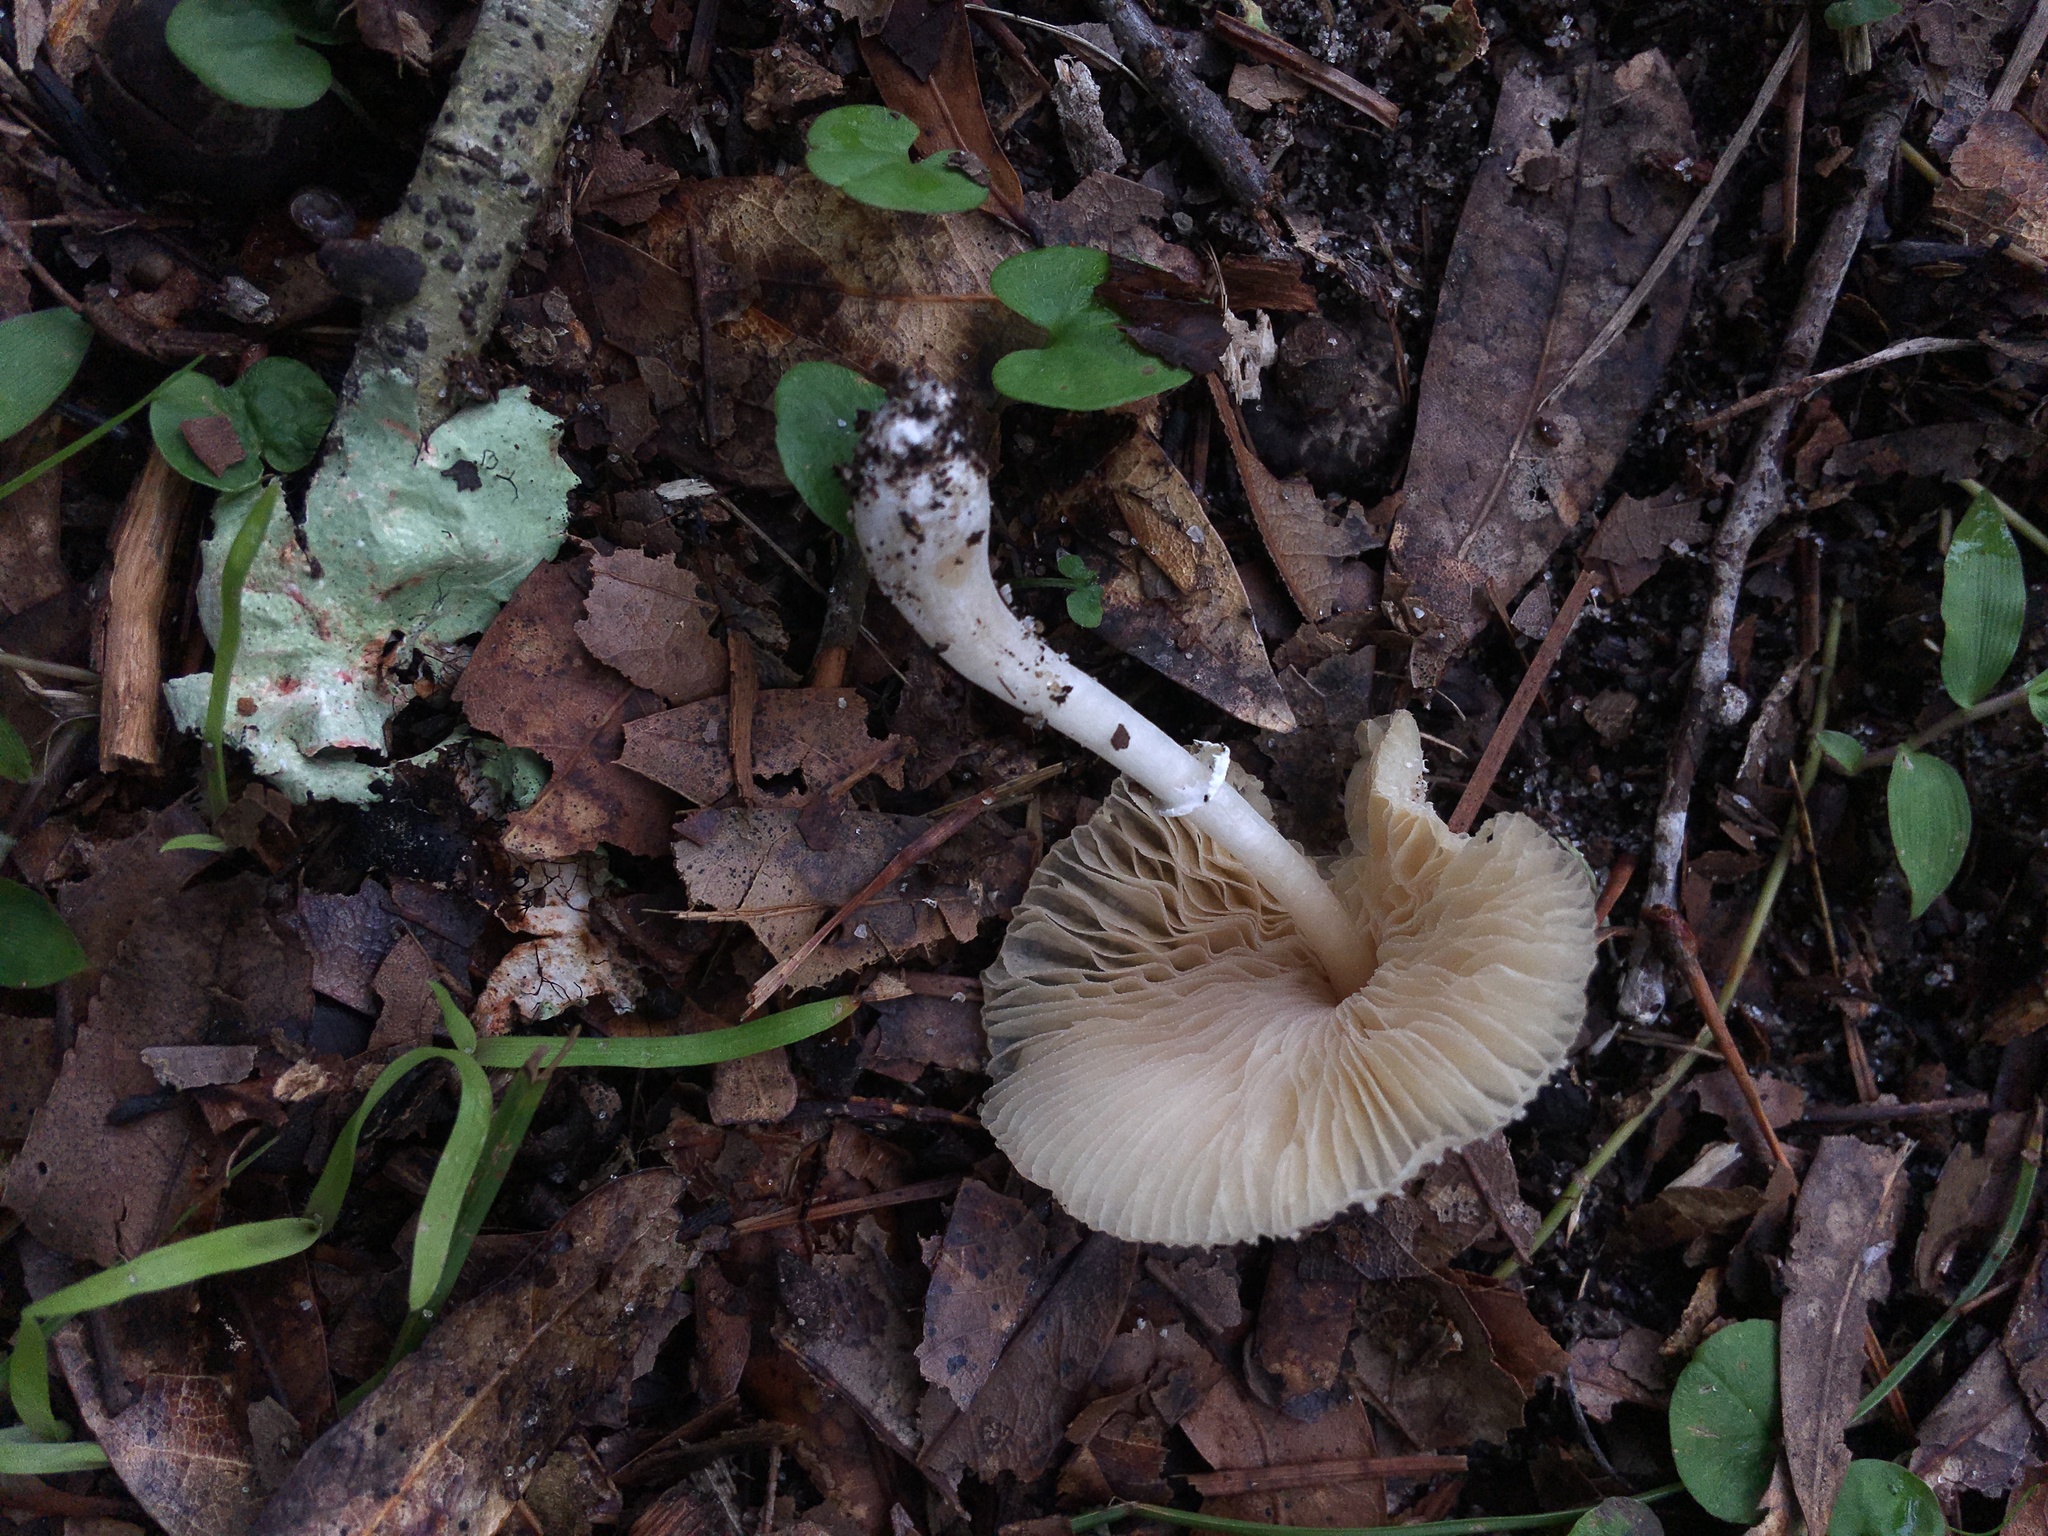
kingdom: Fungi
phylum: Basidiomycota
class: Agaricomycetes
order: Agaricales
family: Agaricaceae
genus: Leucocoprinus
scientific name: Leucocoprinus cepistipes
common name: Onion-stalk parasol
